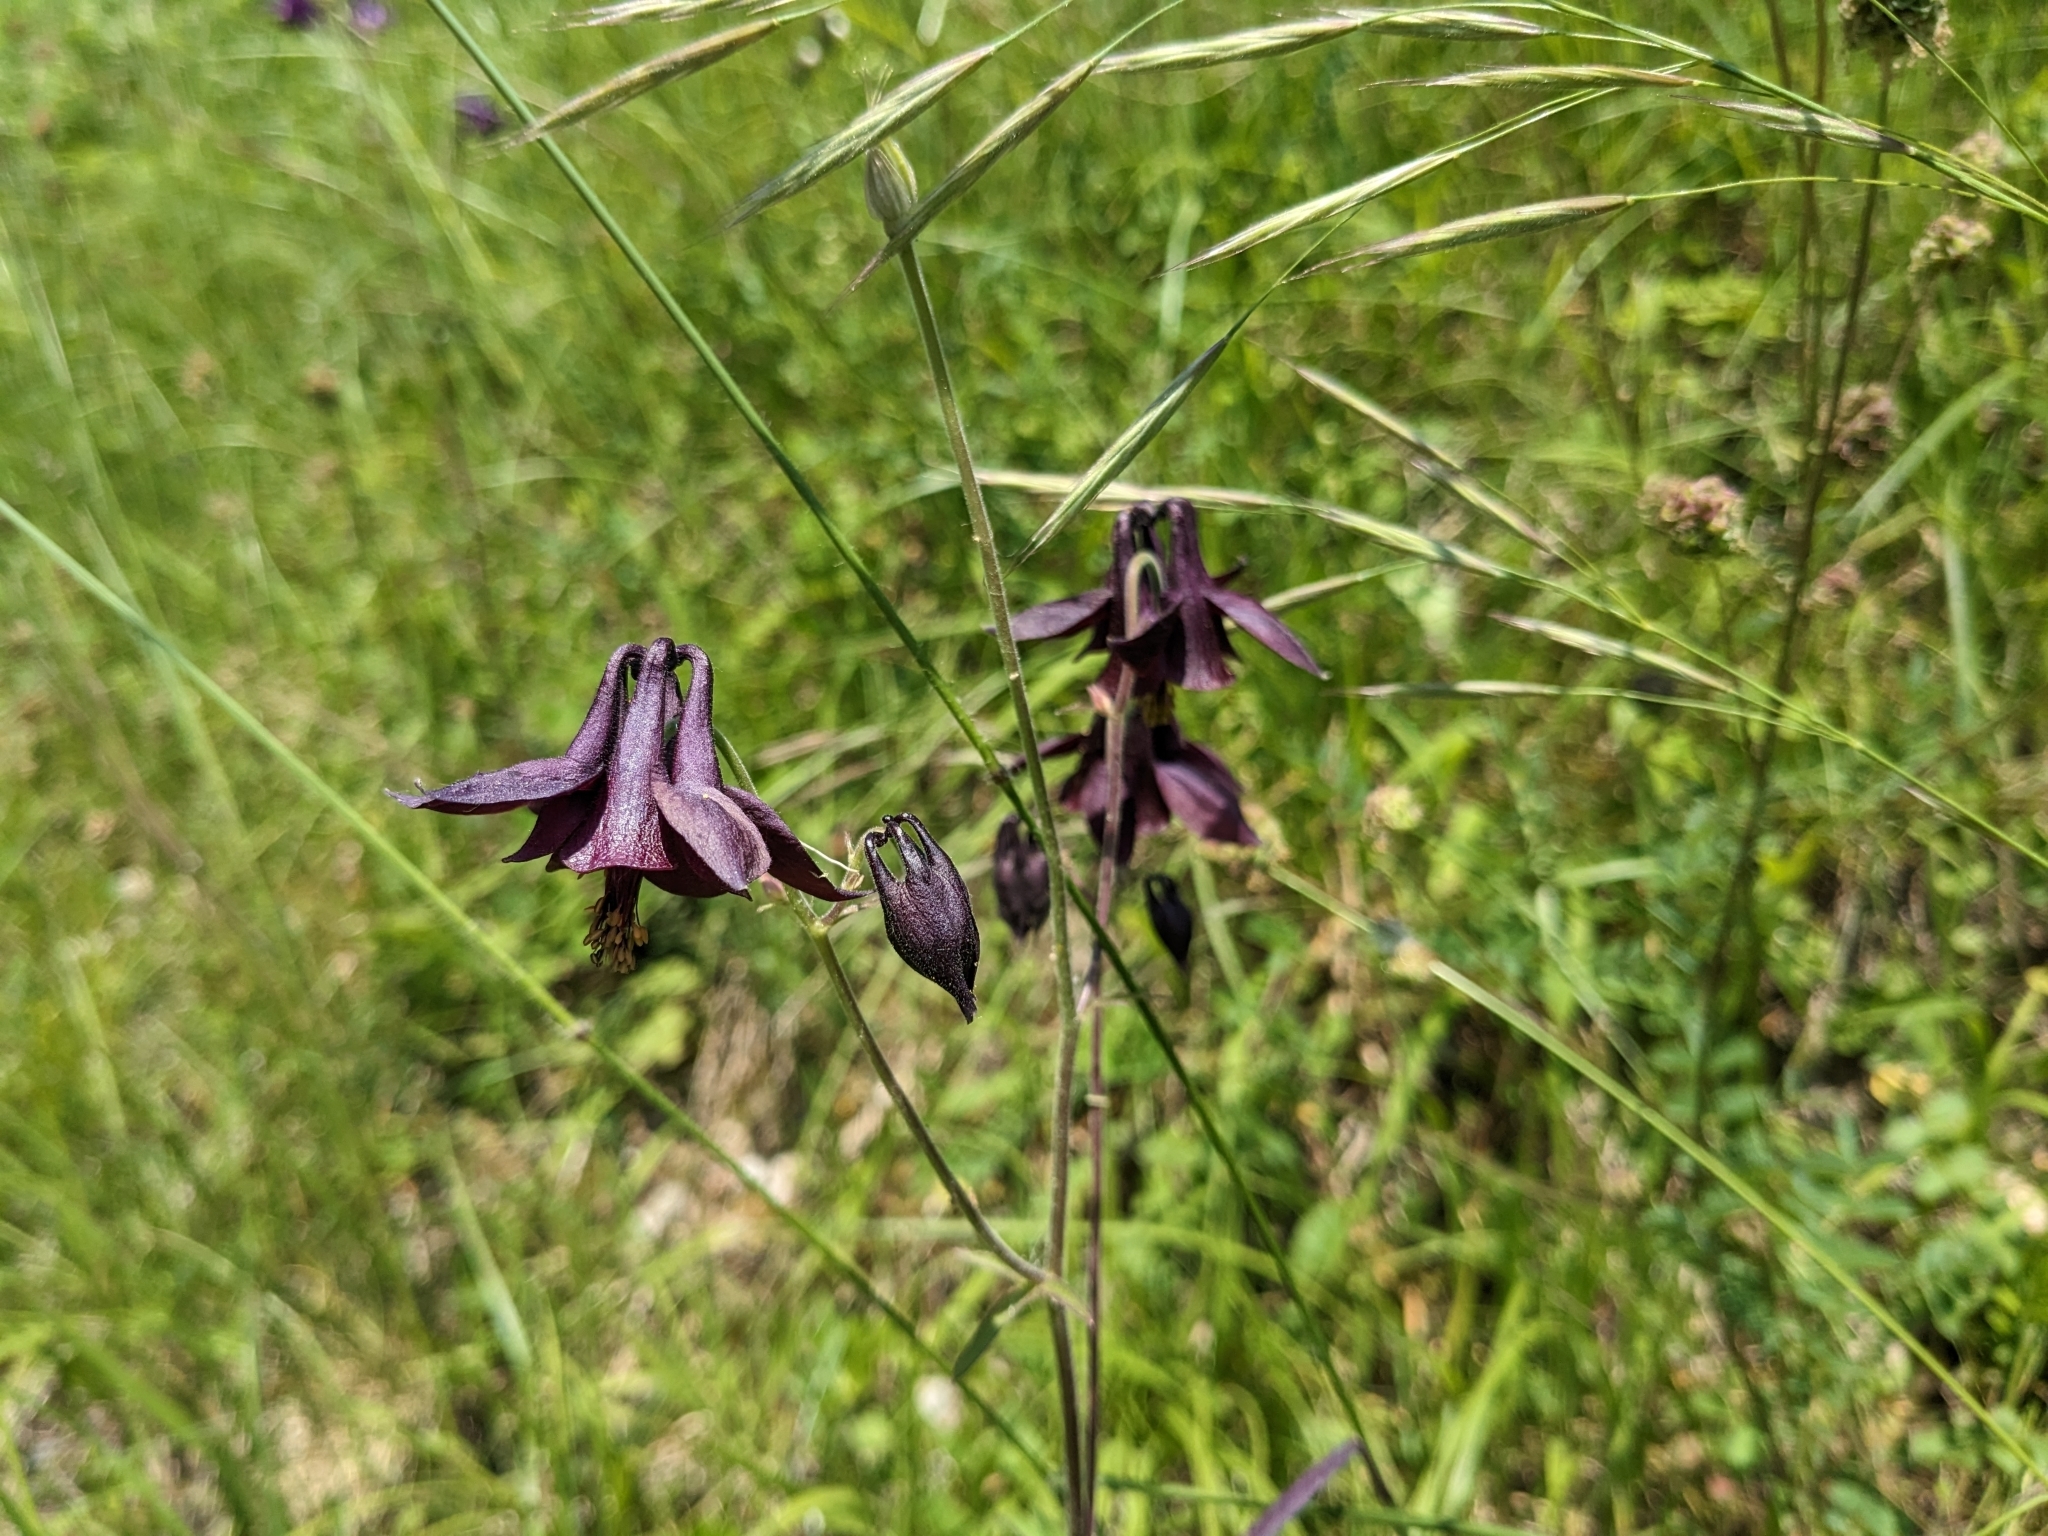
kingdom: Plantae
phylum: Tracheophyta
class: Magnoliopsida
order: Ranunculales
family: Ranunculaceae
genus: Aquilegia
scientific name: Aquilegia atrata
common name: Dark columbine
